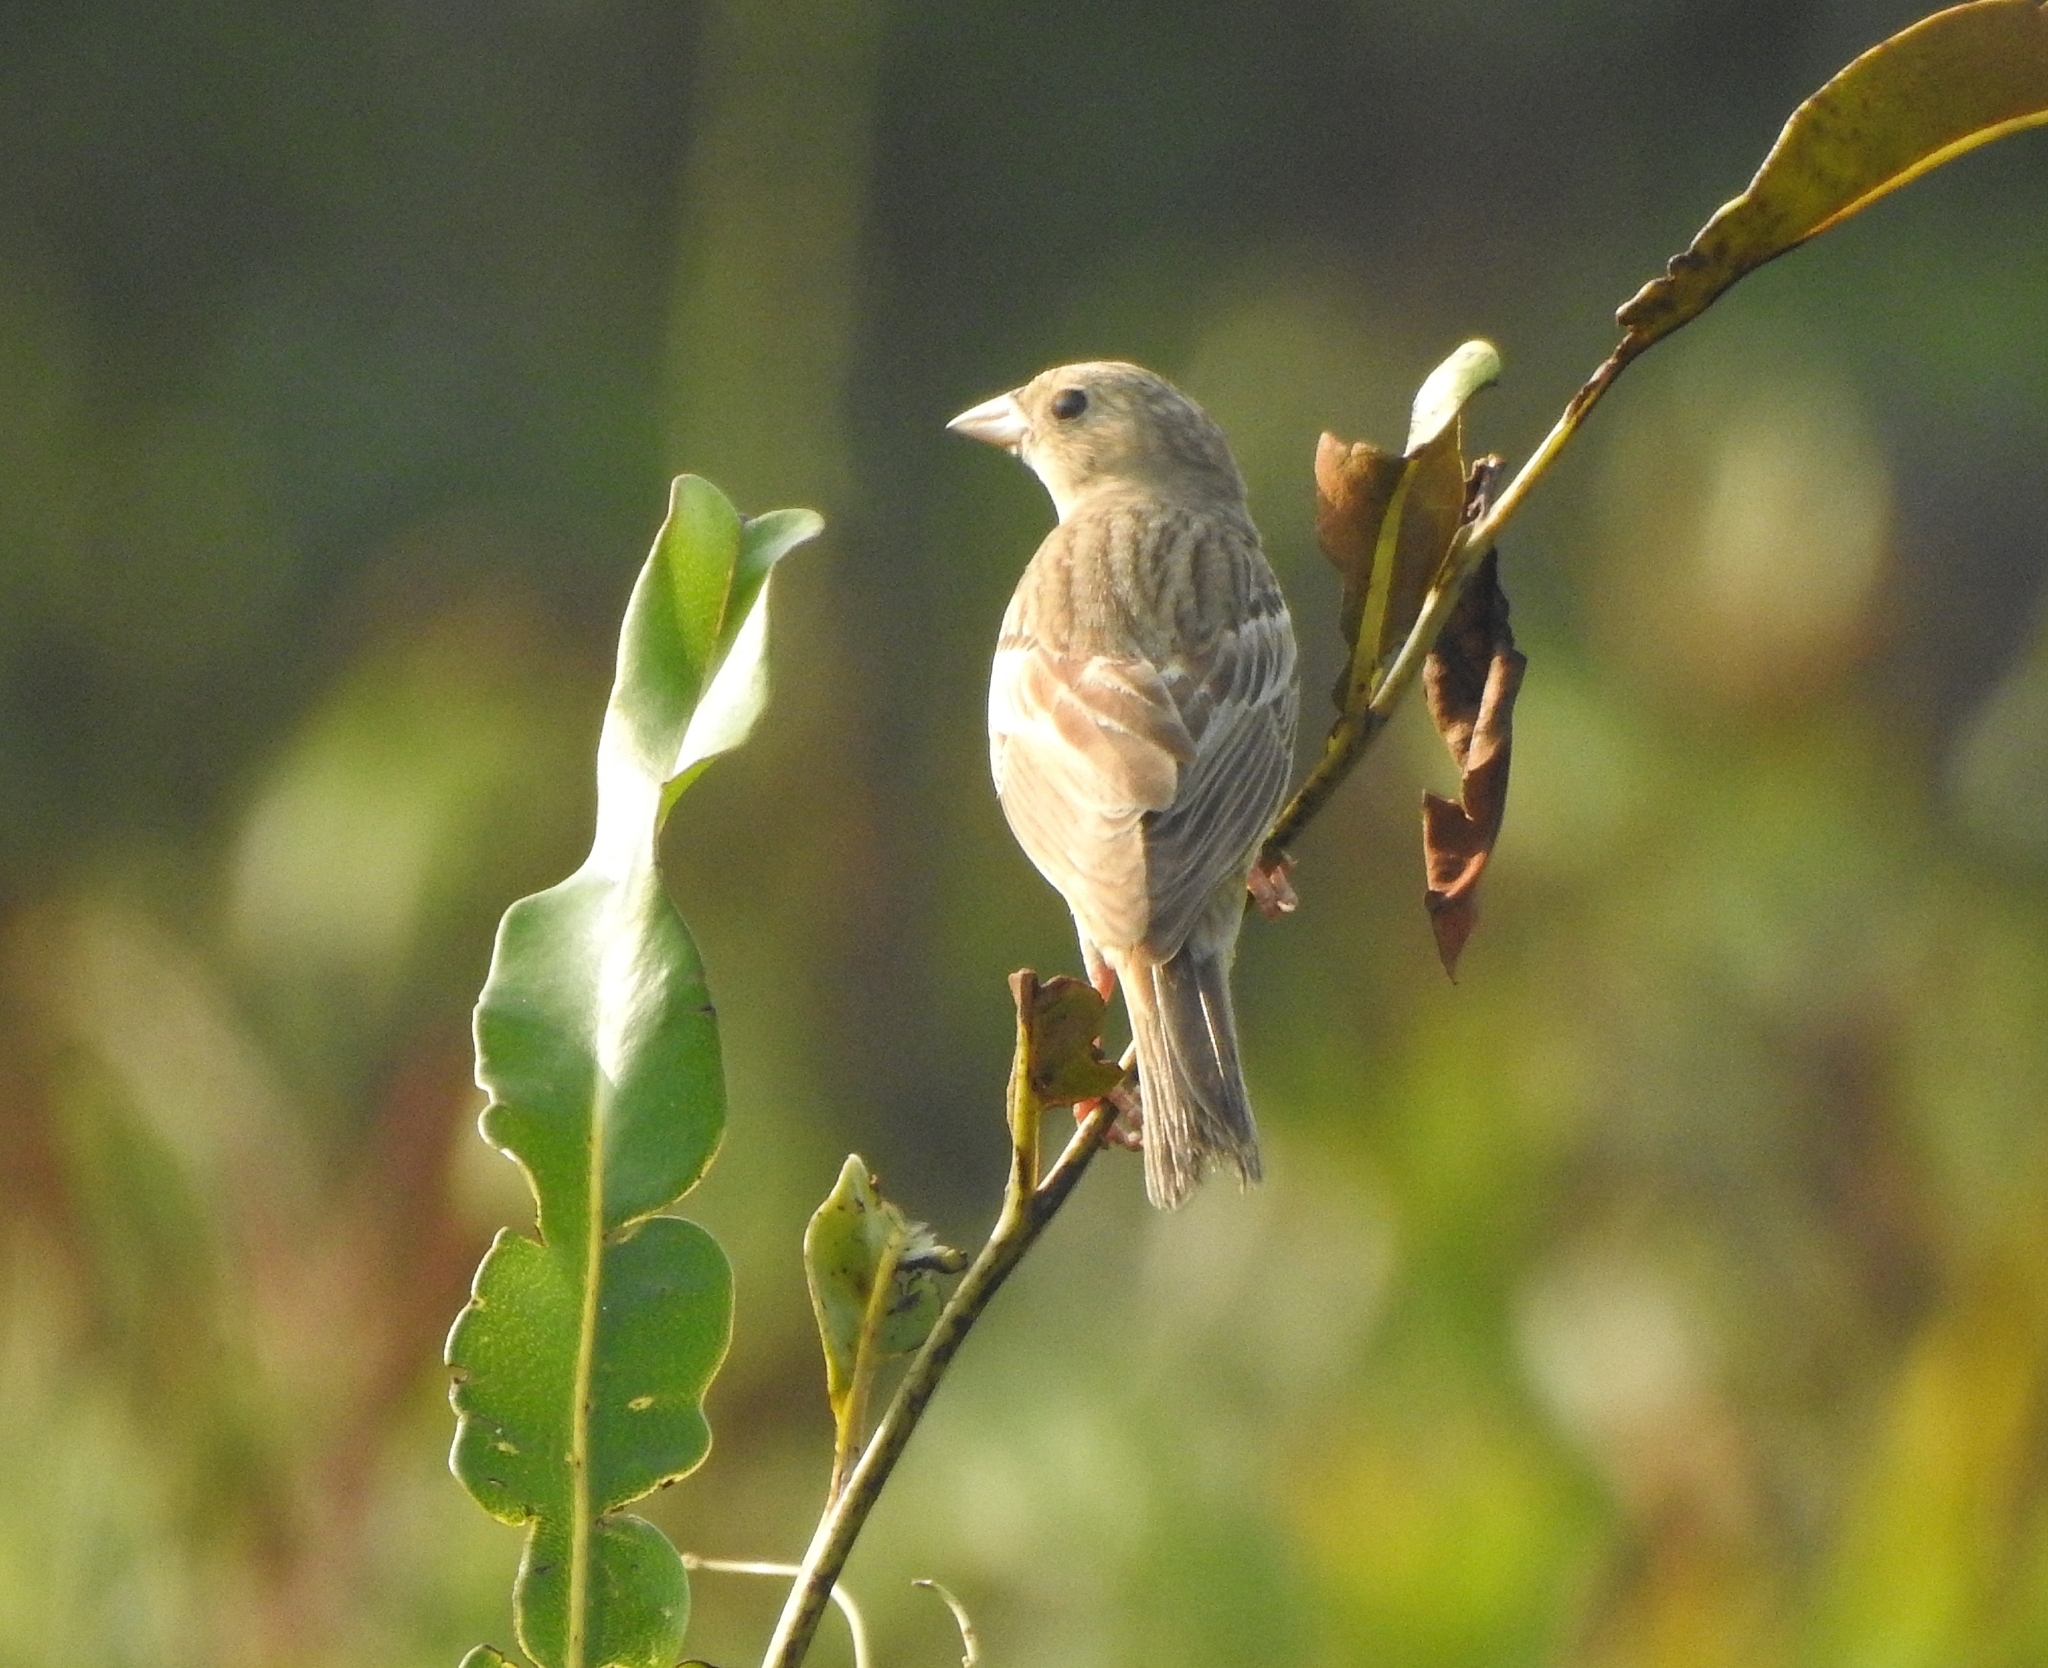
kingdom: Animalia
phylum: Chordata
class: Aves
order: Passeriformes
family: Emberizidae
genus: Emberiza
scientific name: Emberiza melanocephala
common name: Black-headed bunting
